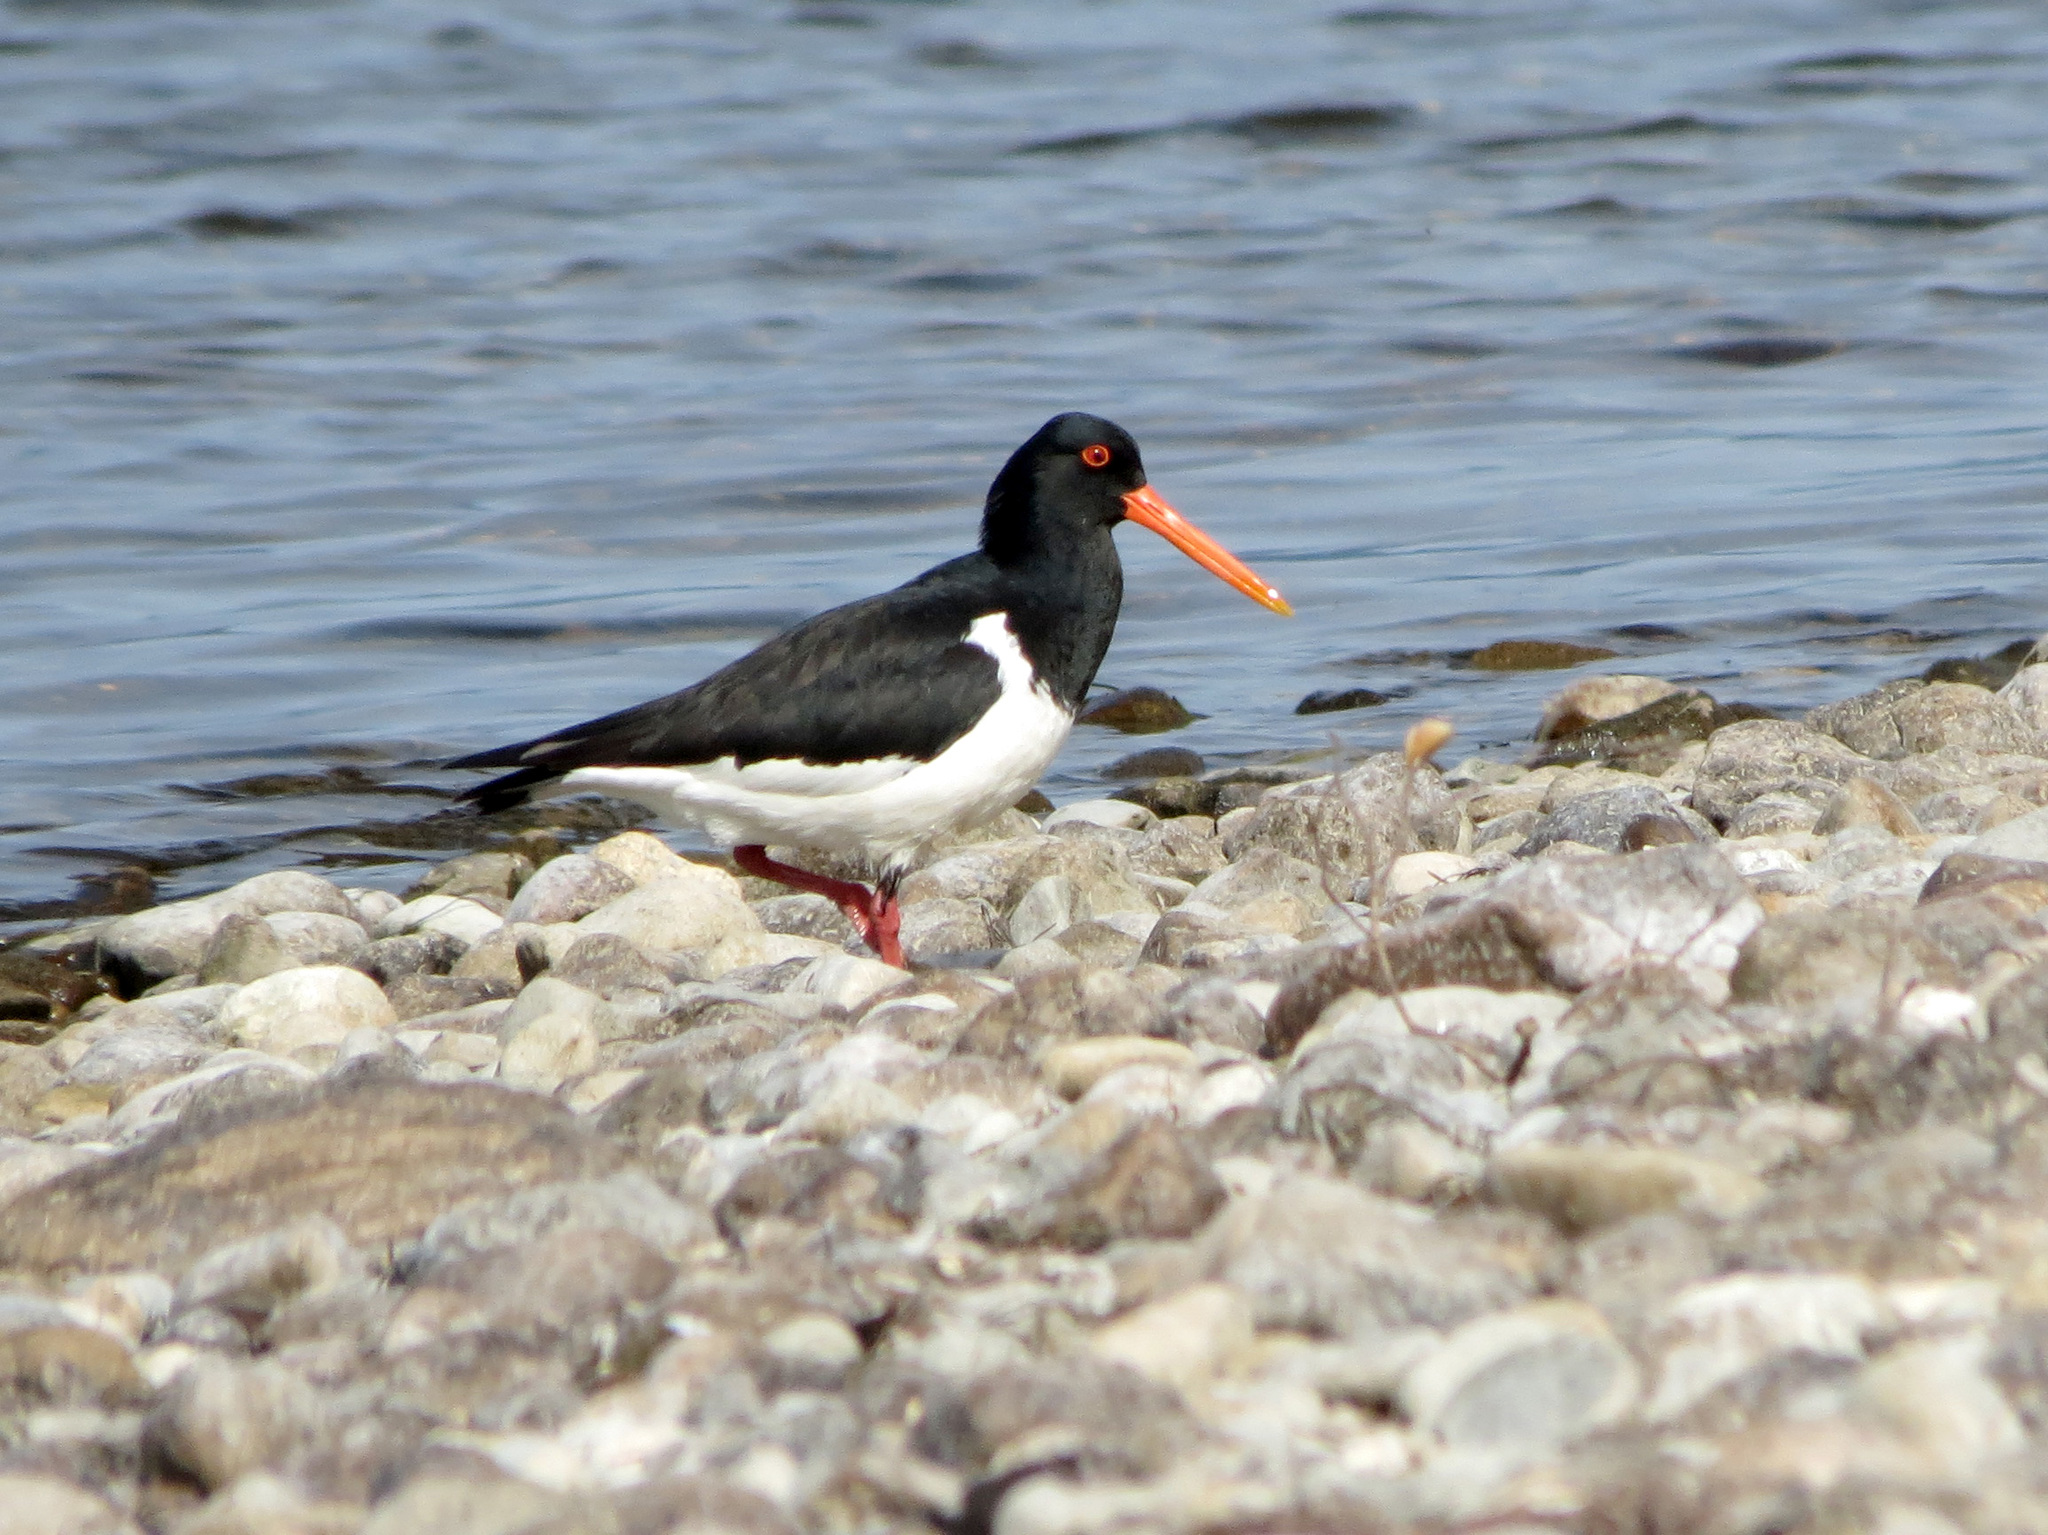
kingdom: Animalia
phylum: Chordata
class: Aves
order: Charadriiformes
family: Haematopodidae
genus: Haematopus
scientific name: Haematopus finschi
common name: South island oystercatcher
